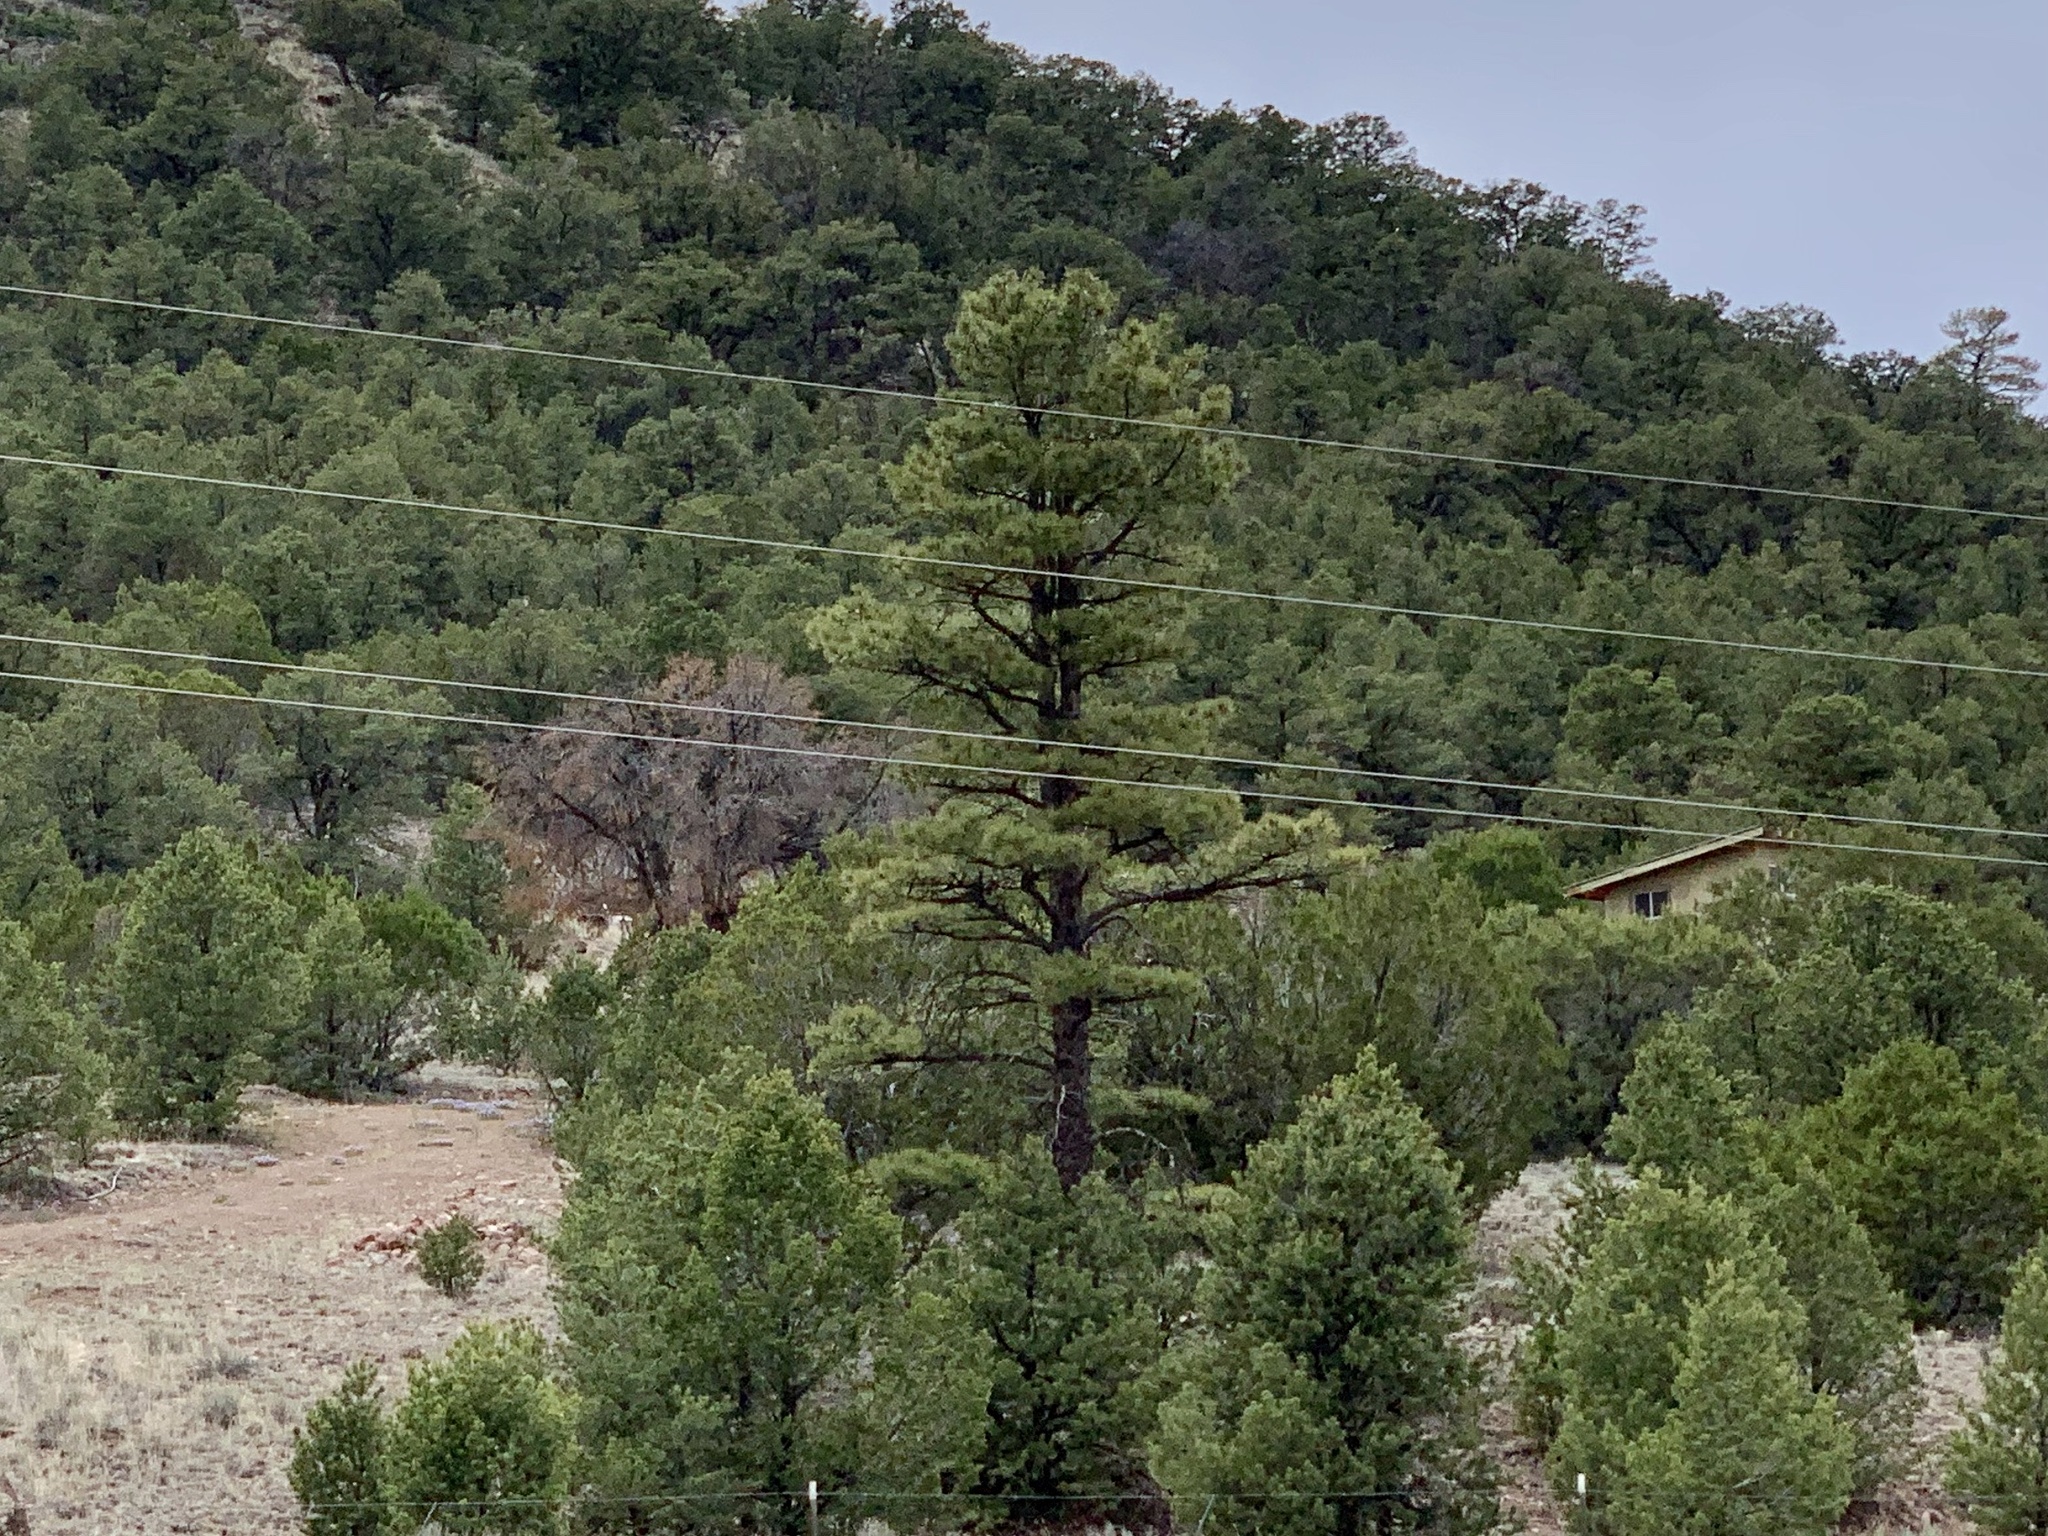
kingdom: Plantae
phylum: Tracheophyta
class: Pinopsida
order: Pinales
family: Pinaceae
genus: Pinus
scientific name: Pinus ponderosa
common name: Western yellow-pine
